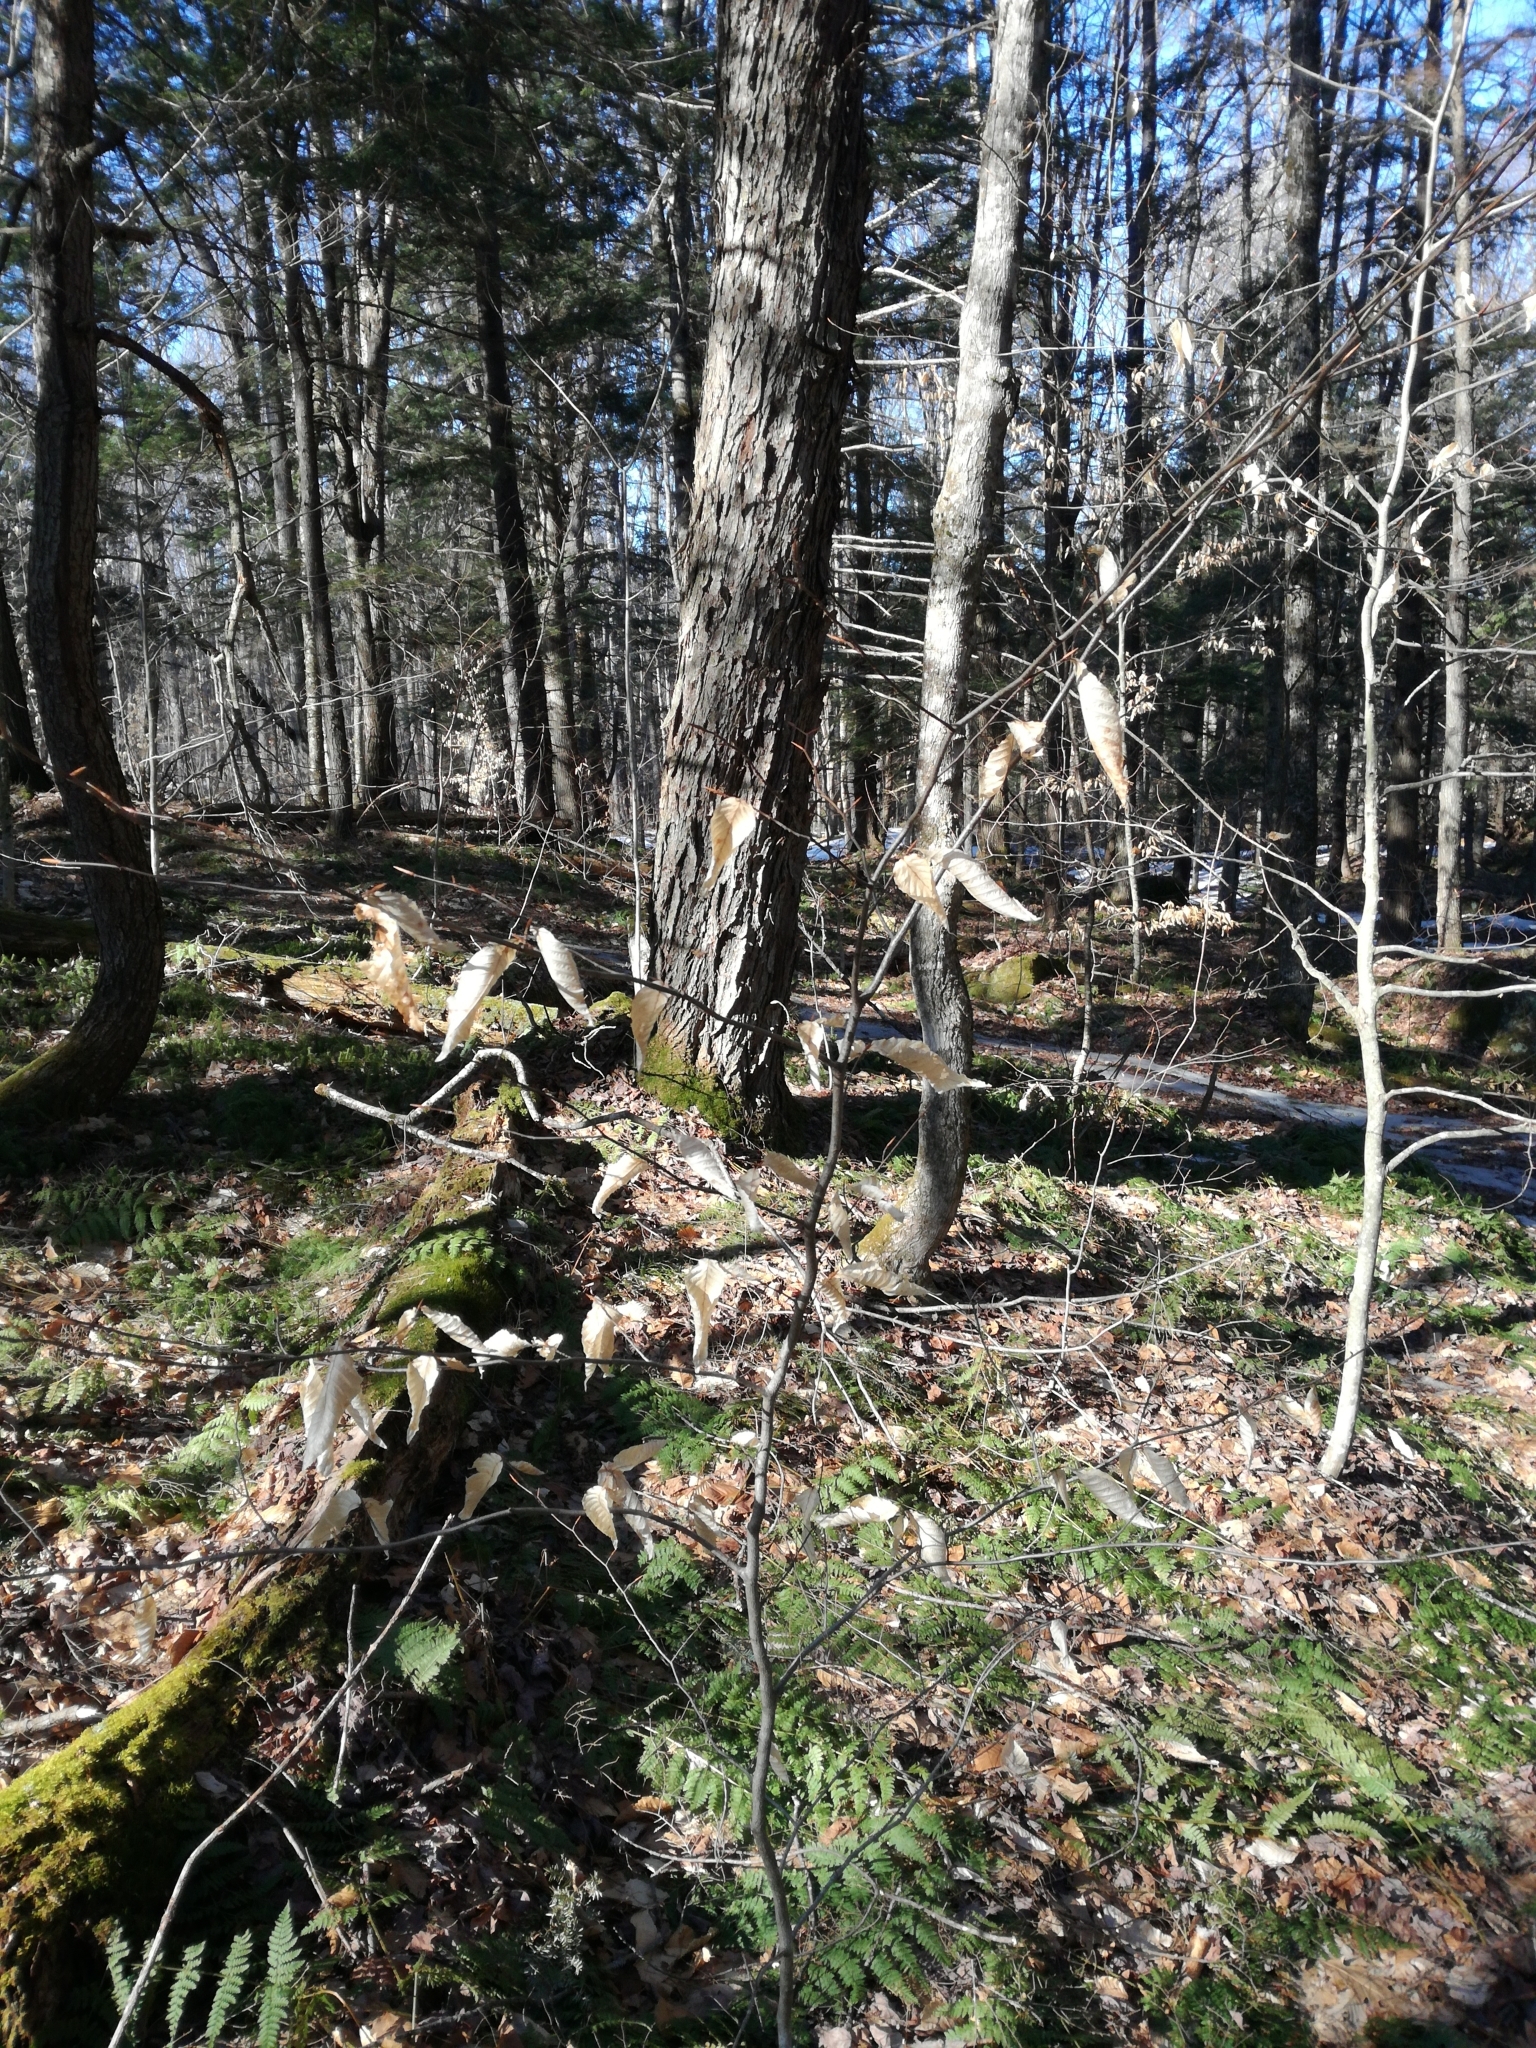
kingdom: Plantae
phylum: Tracheophyta
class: Magnoliopsida
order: Fagales
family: Fagaceae
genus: Fagus
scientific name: Fagus grandifolia
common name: American beech
